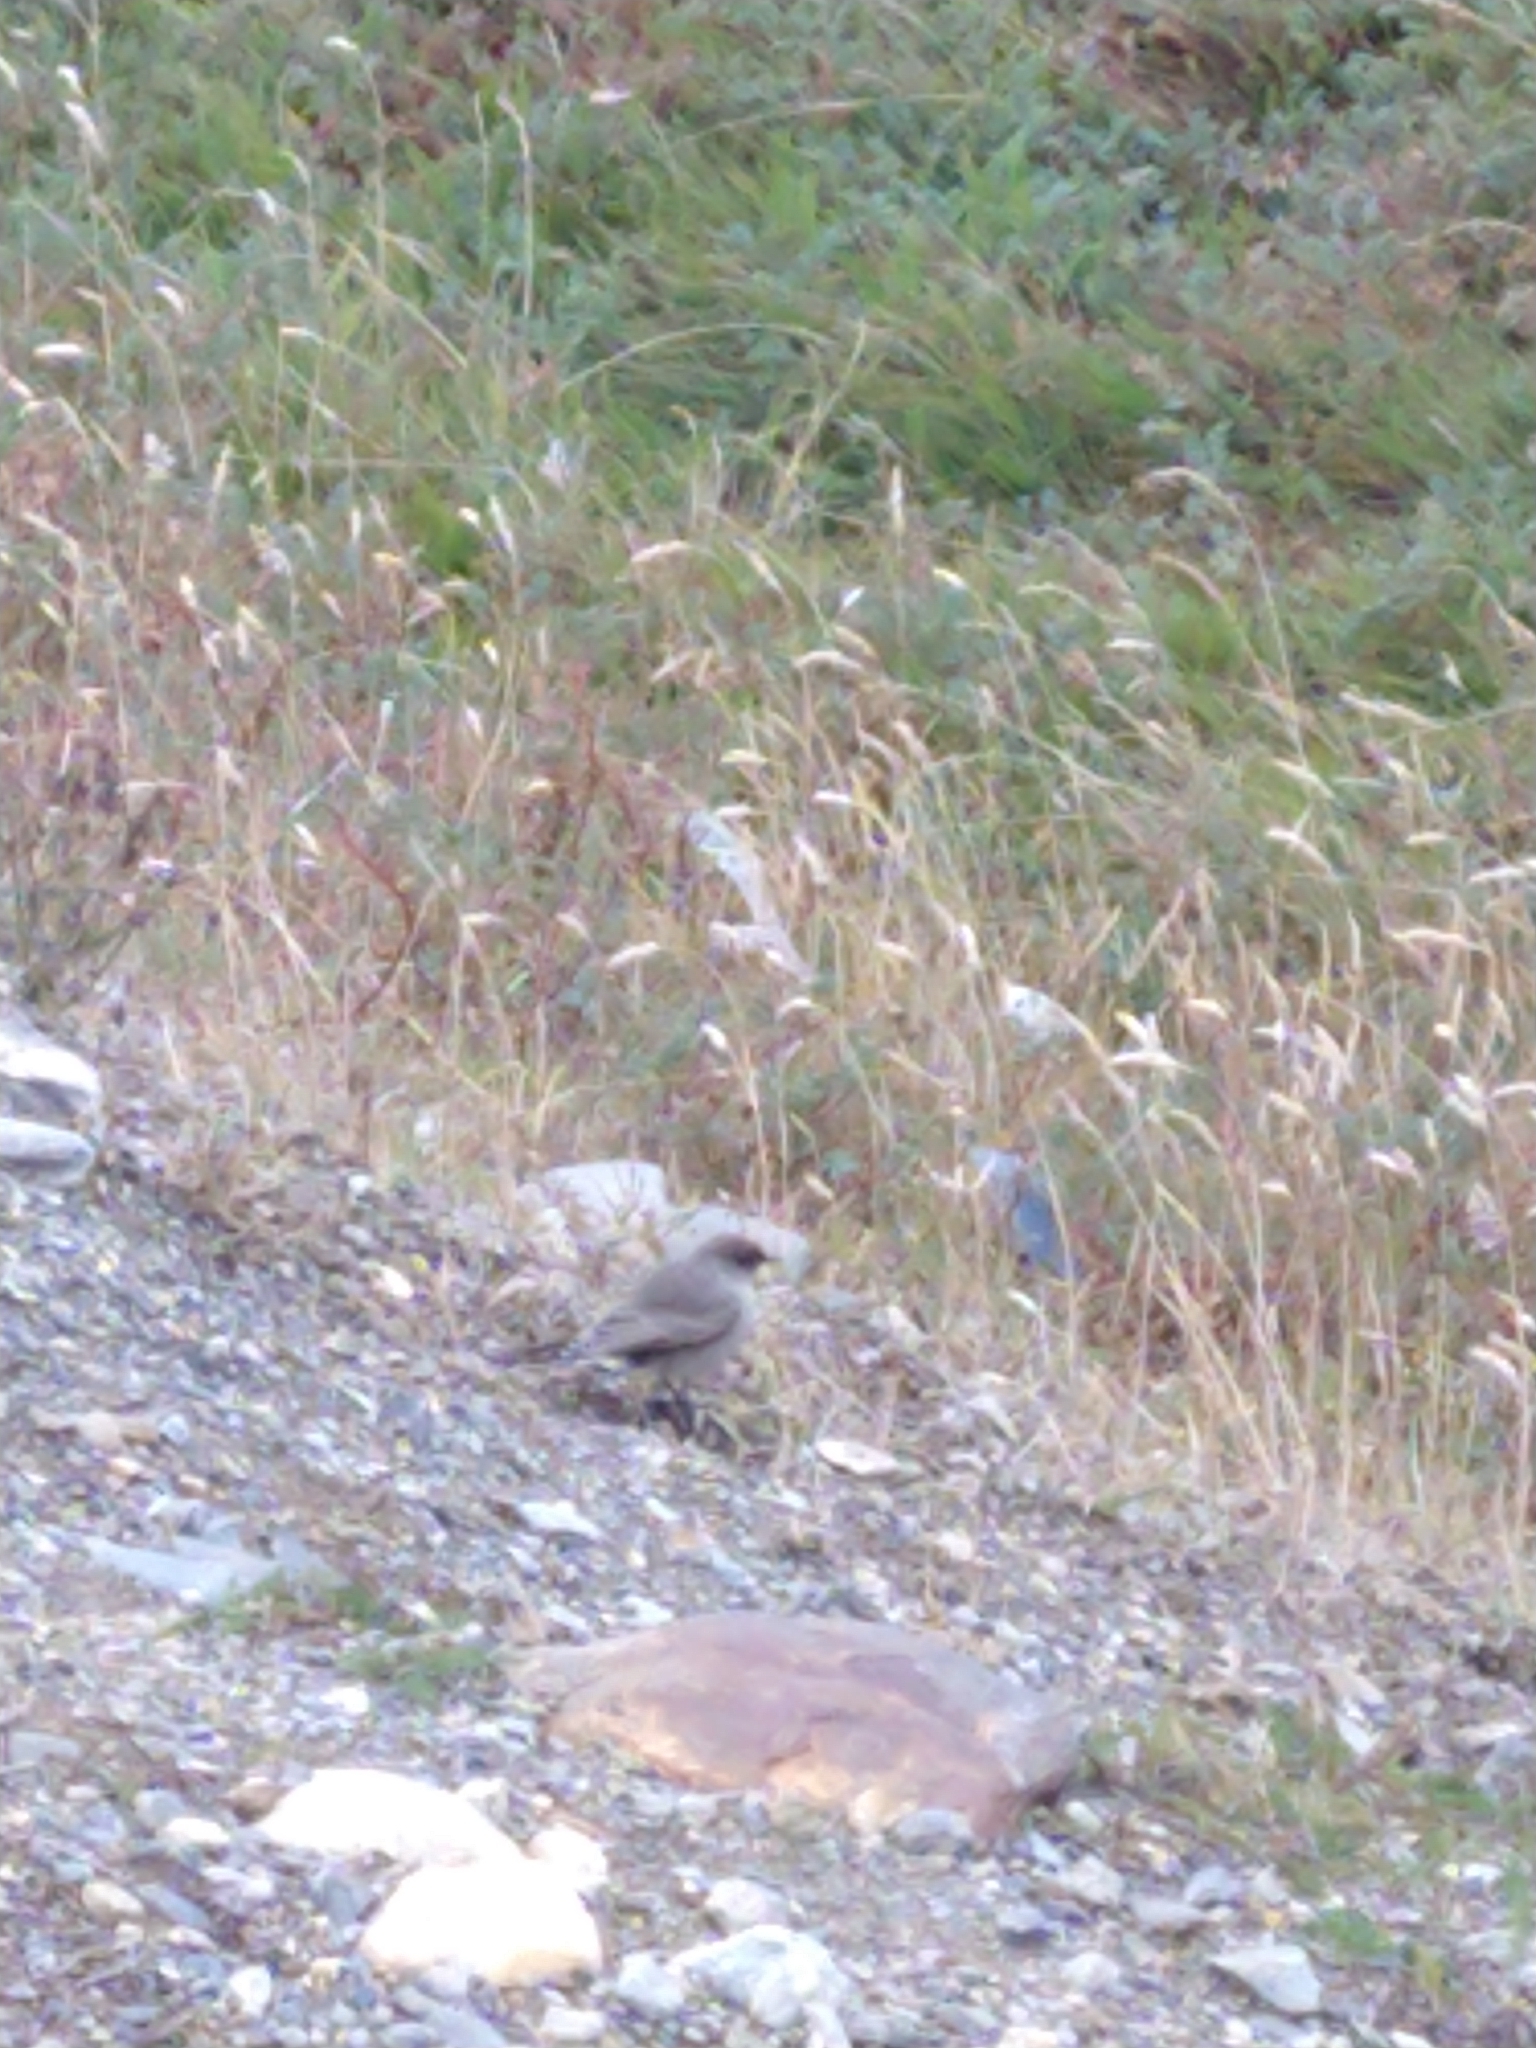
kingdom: Animalia
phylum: Chordata
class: Aves
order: Passeriformes
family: Tyrannidae
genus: Muscisaxicola
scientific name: Muscisaxicola maclovianus
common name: Dark-faced ground tyrant
